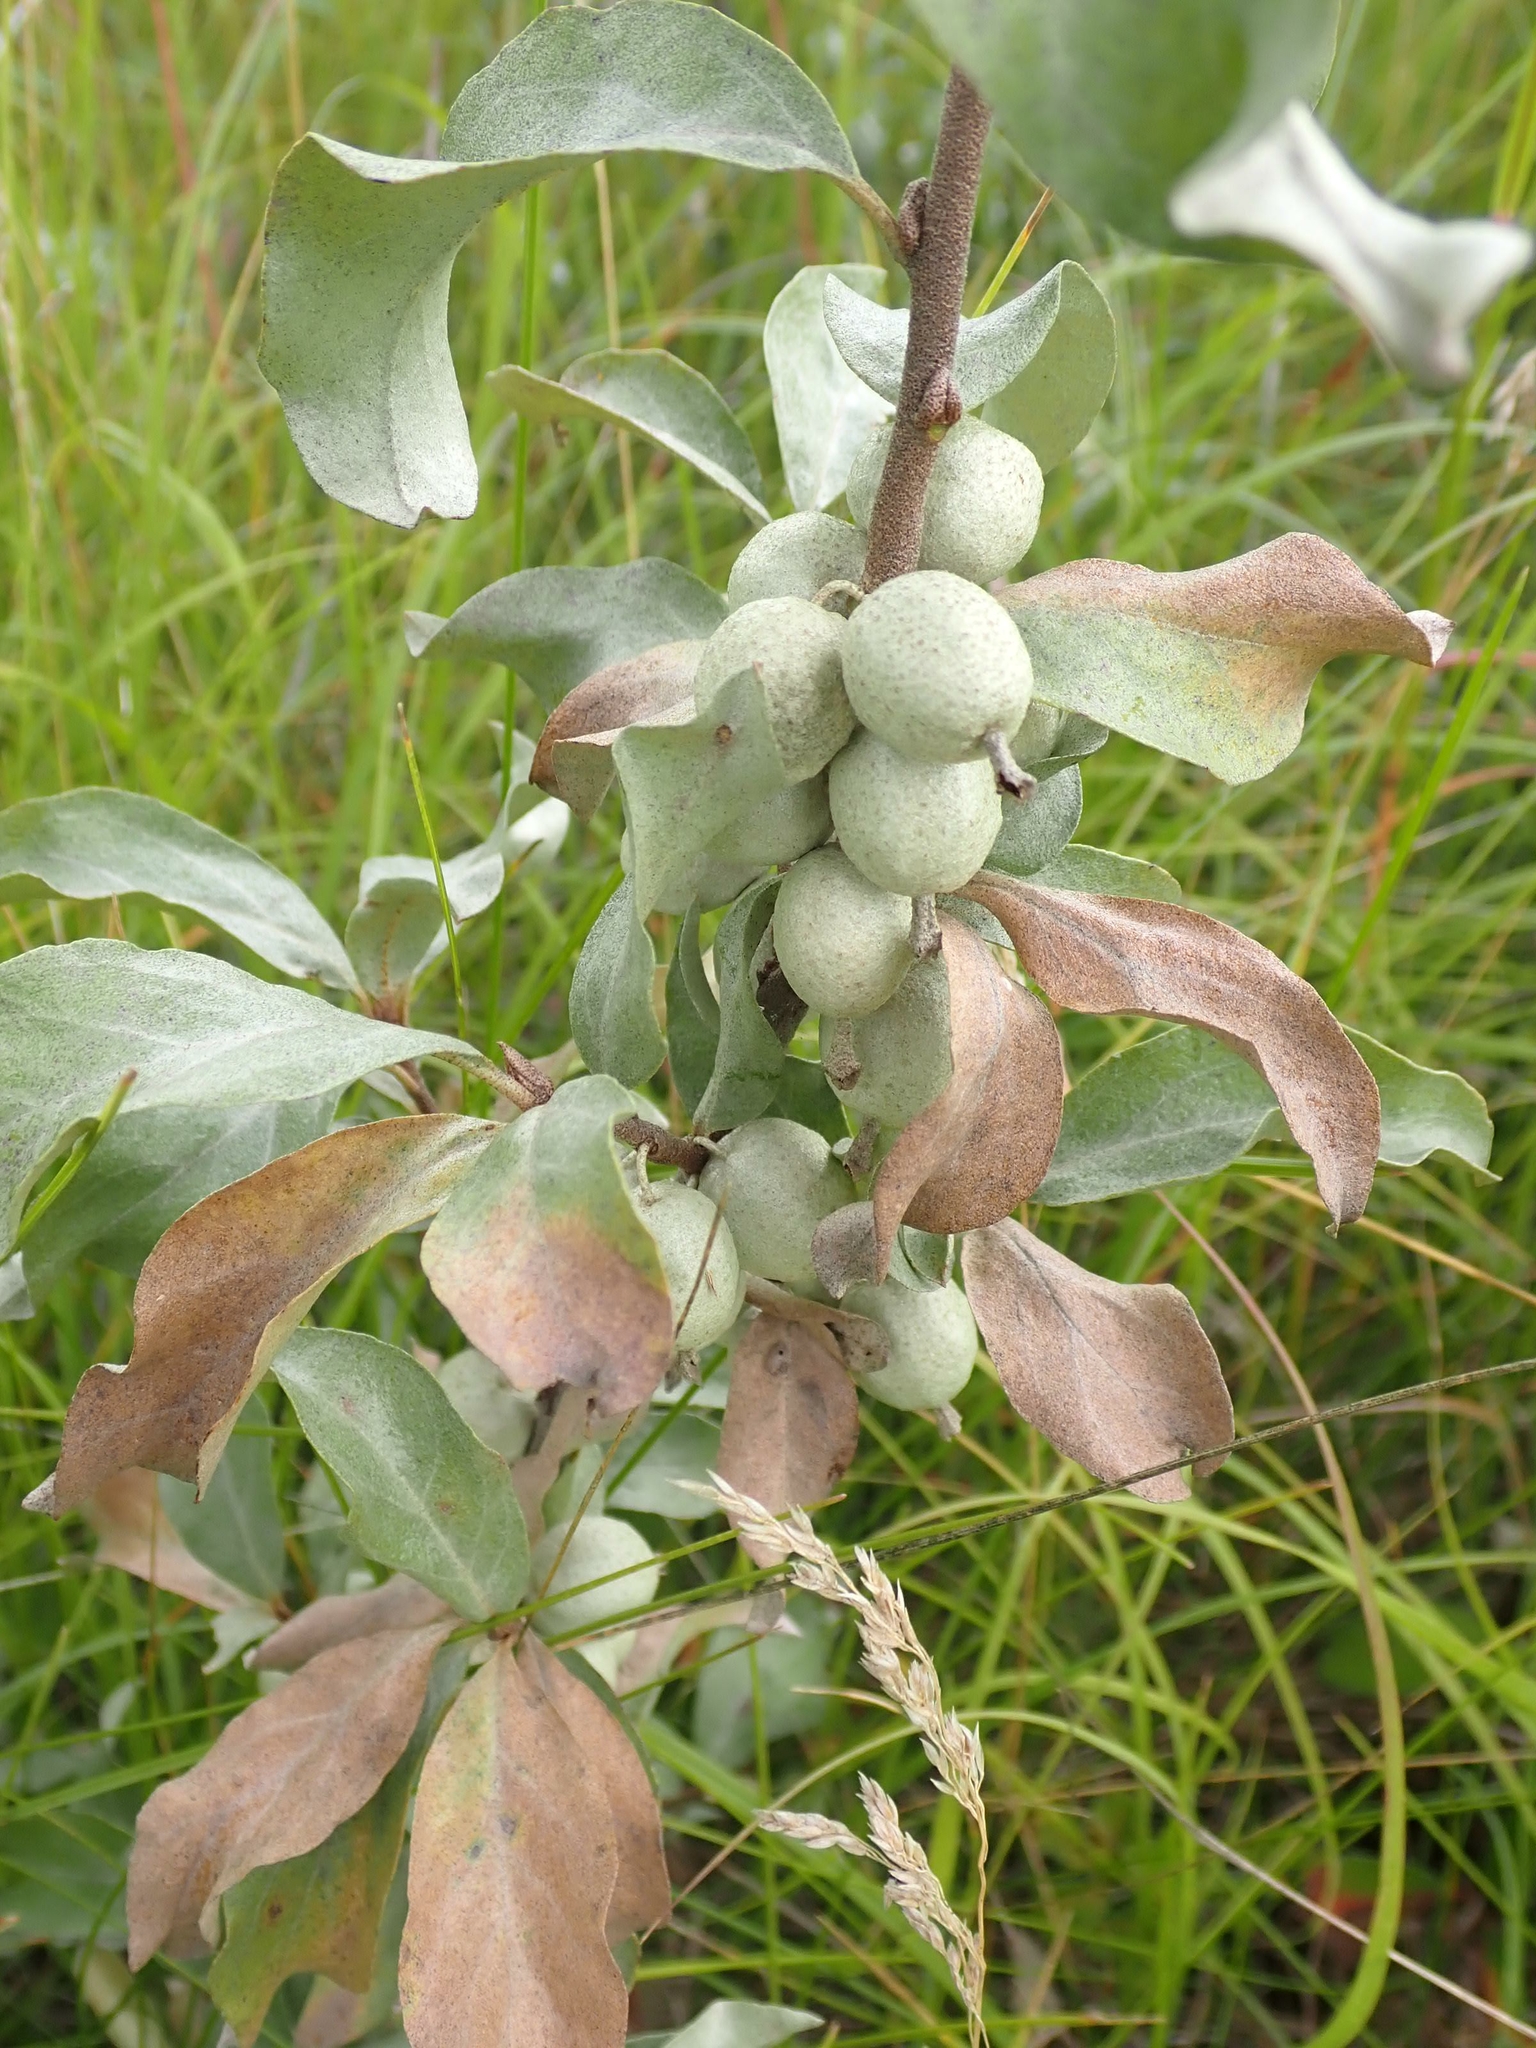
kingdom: Plantae
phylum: Tracheophyta
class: Magnoliopsida
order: Rosales
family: Elaeagnaceae
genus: Elaeagnus
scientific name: Elaeagnus commutata
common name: Silverberry
